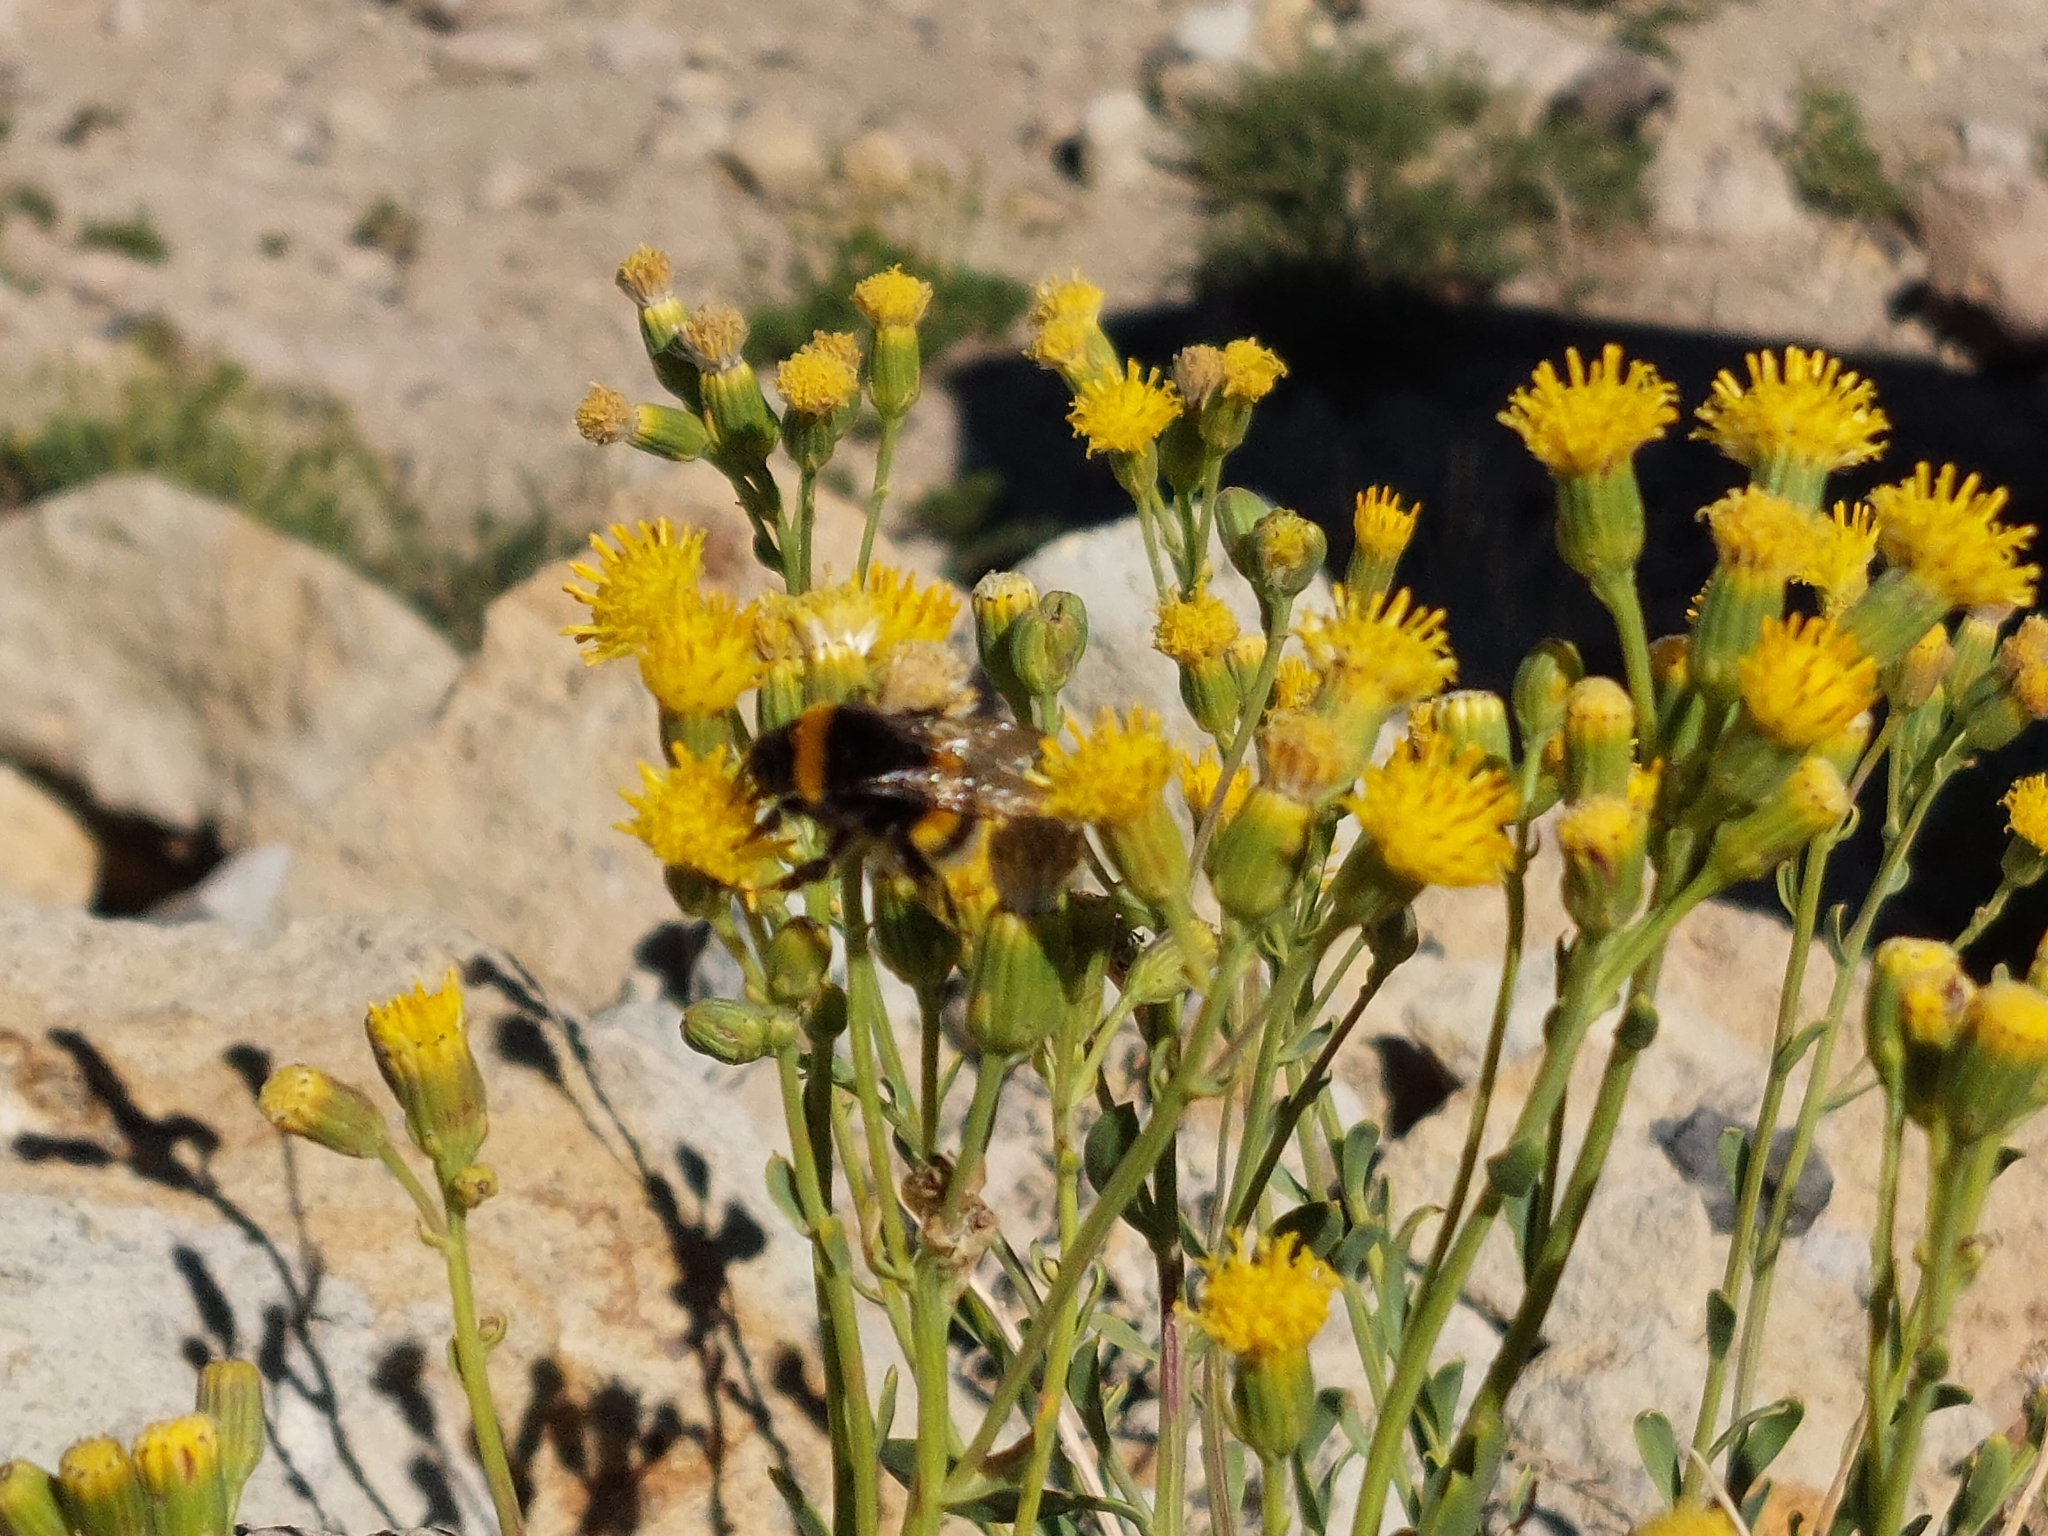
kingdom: Animalia
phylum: Arthropoda
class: Insecta
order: Hymenoptera
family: Apidae
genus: Bombus
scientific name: Bombus terrestris
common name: Buff-tailed bumblebee
